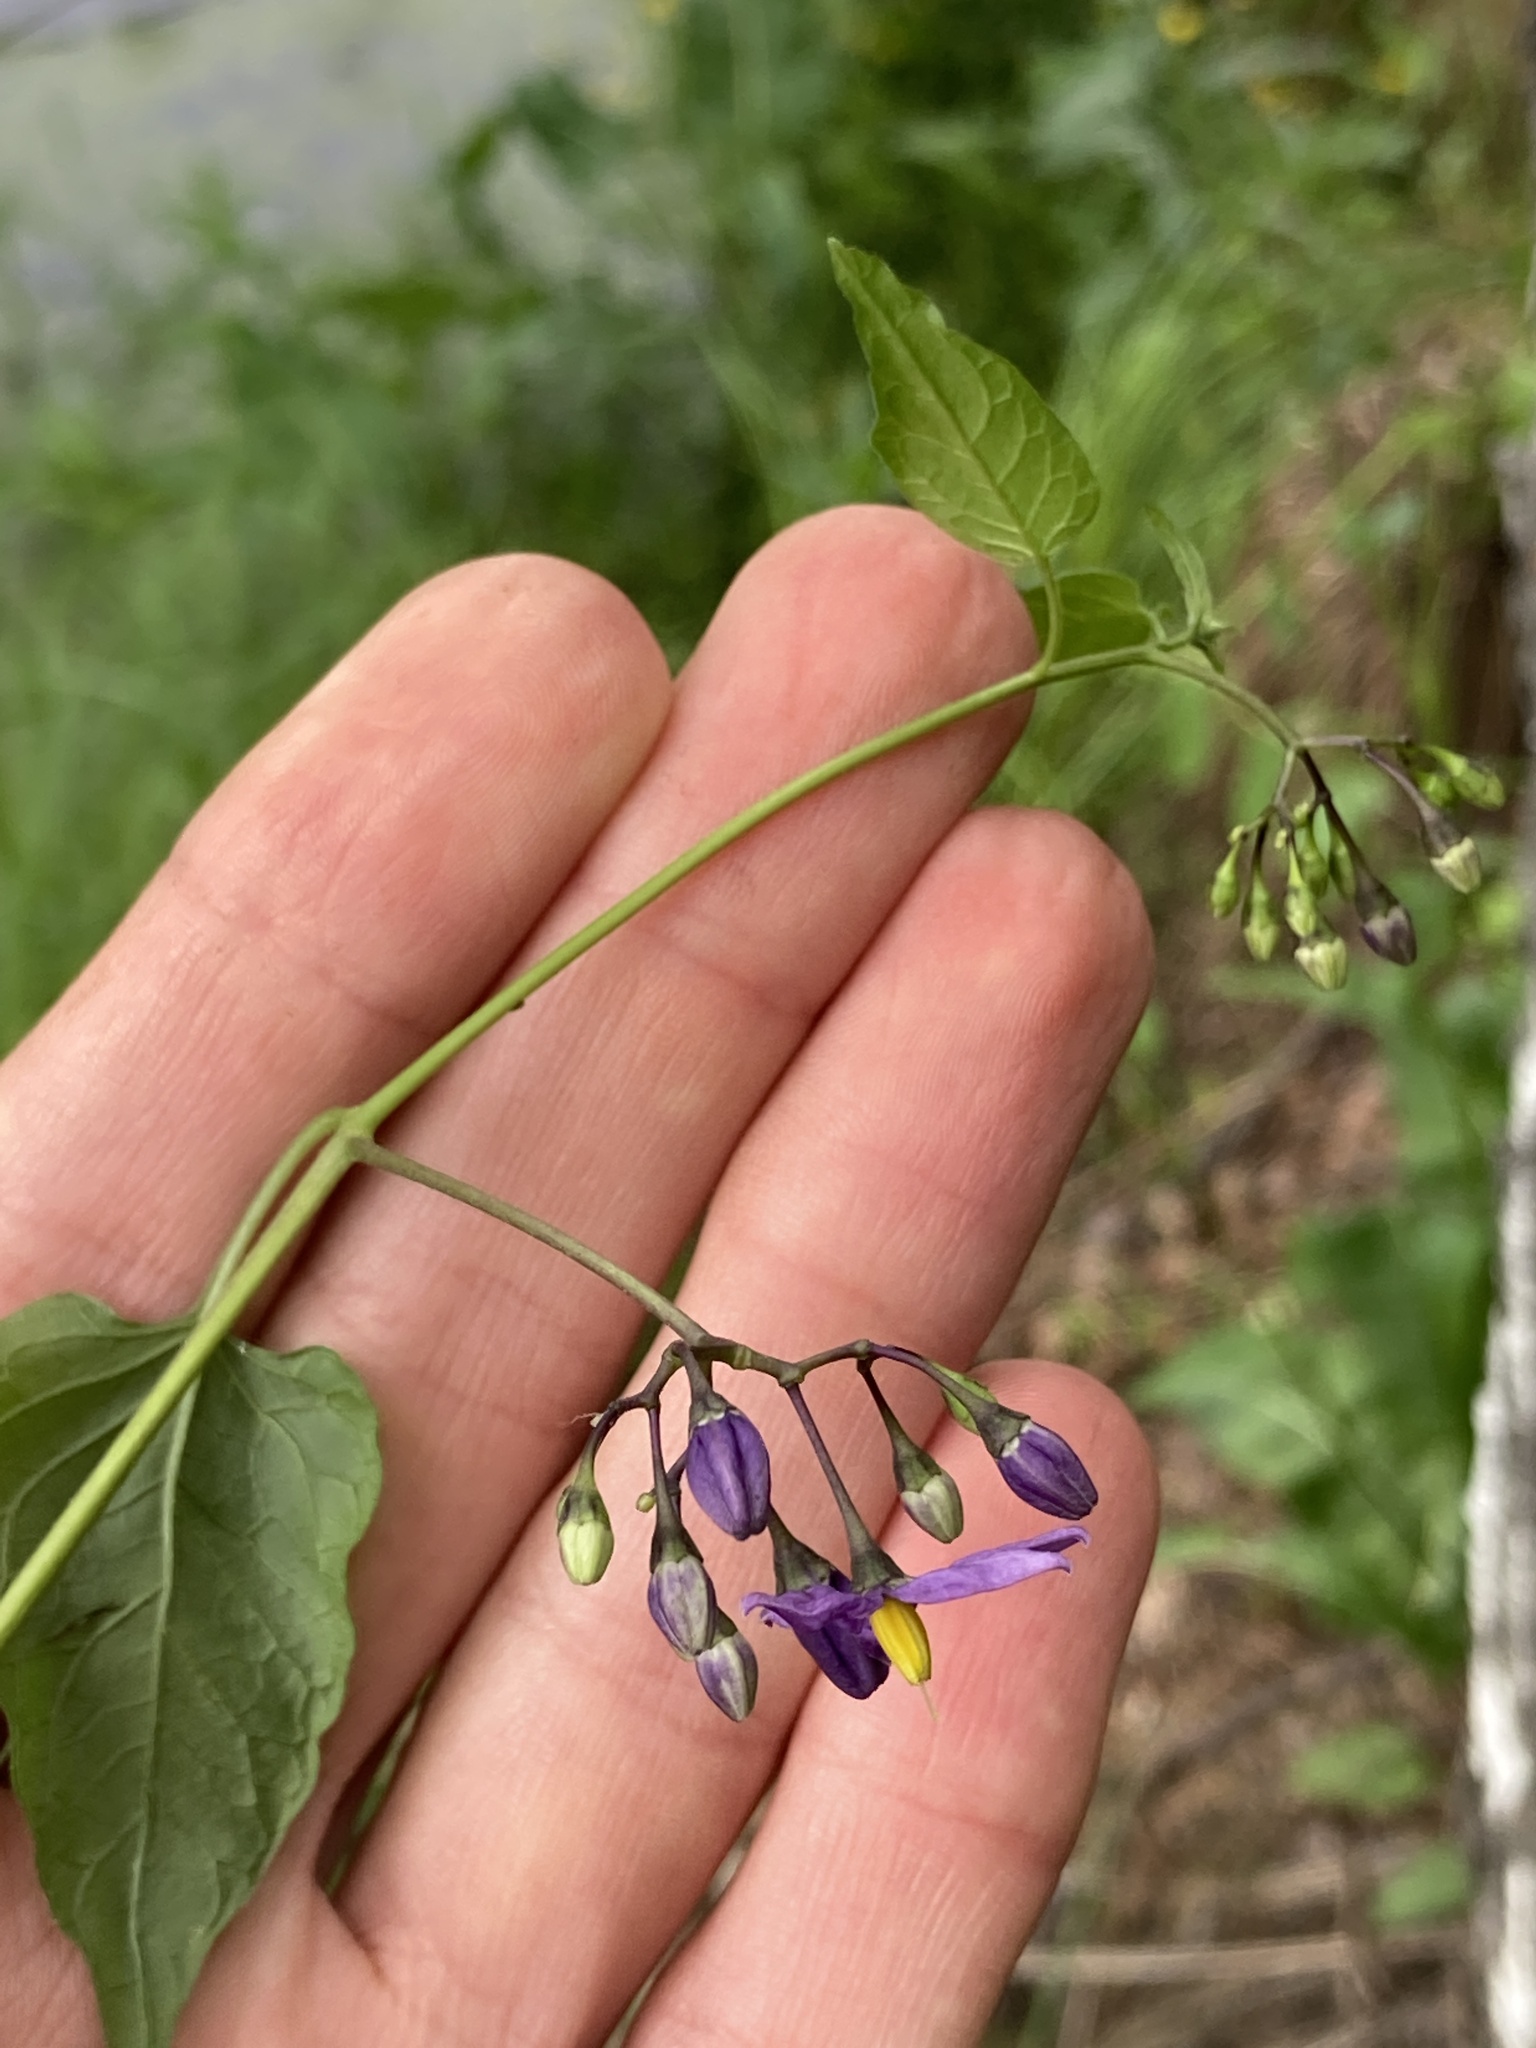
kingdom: Plantae
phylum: Tracheophyta
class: Magnoliopsida
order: Solanales
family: Solanaceae
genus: Solanum
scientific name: Solanum dulcamara
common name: Climbing nightshade
